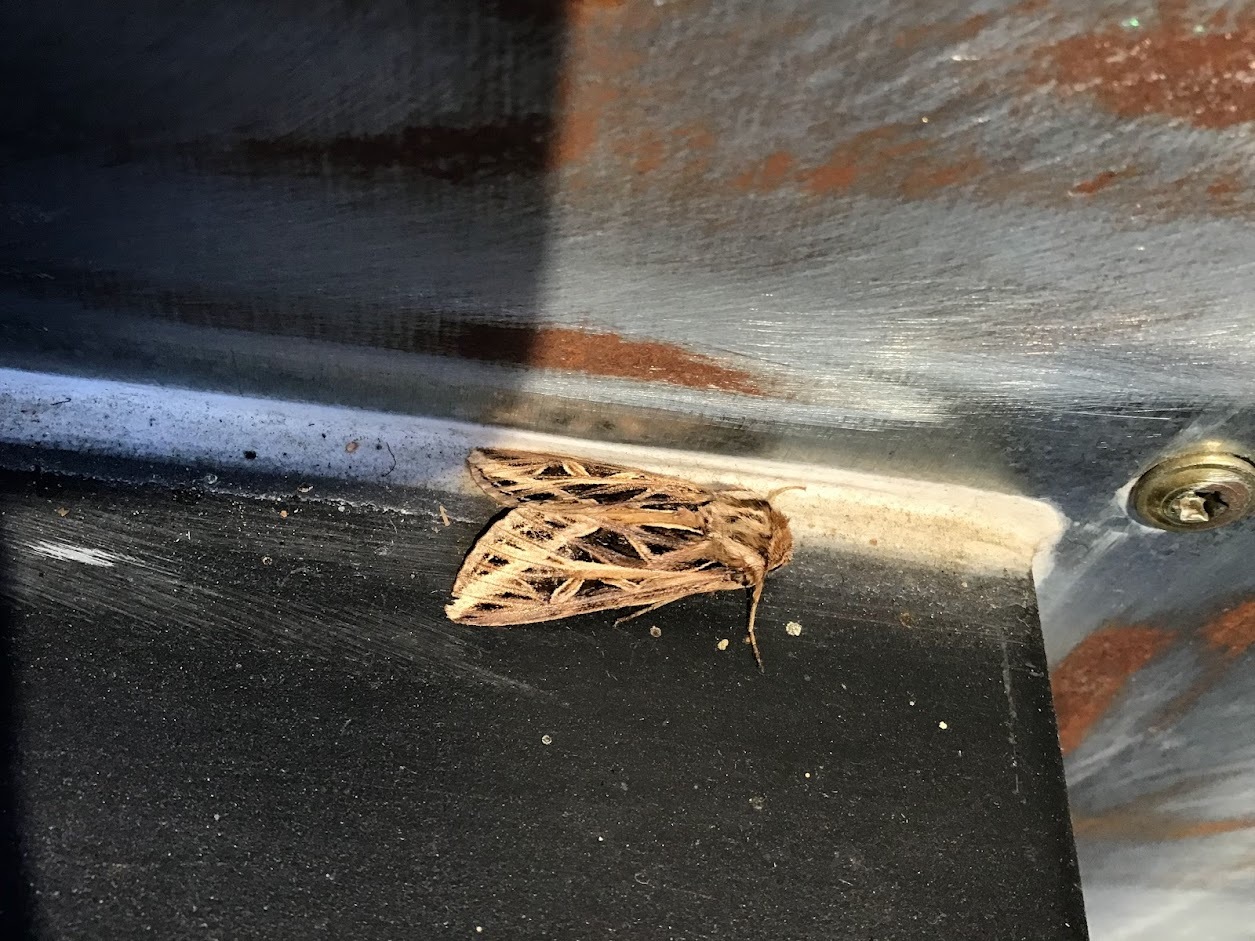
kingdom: Animalia
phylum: Arthropoda
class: Insecta
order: Lepidoptera
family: Noctuidae
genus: Dargida
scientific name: Dargida procinctus
